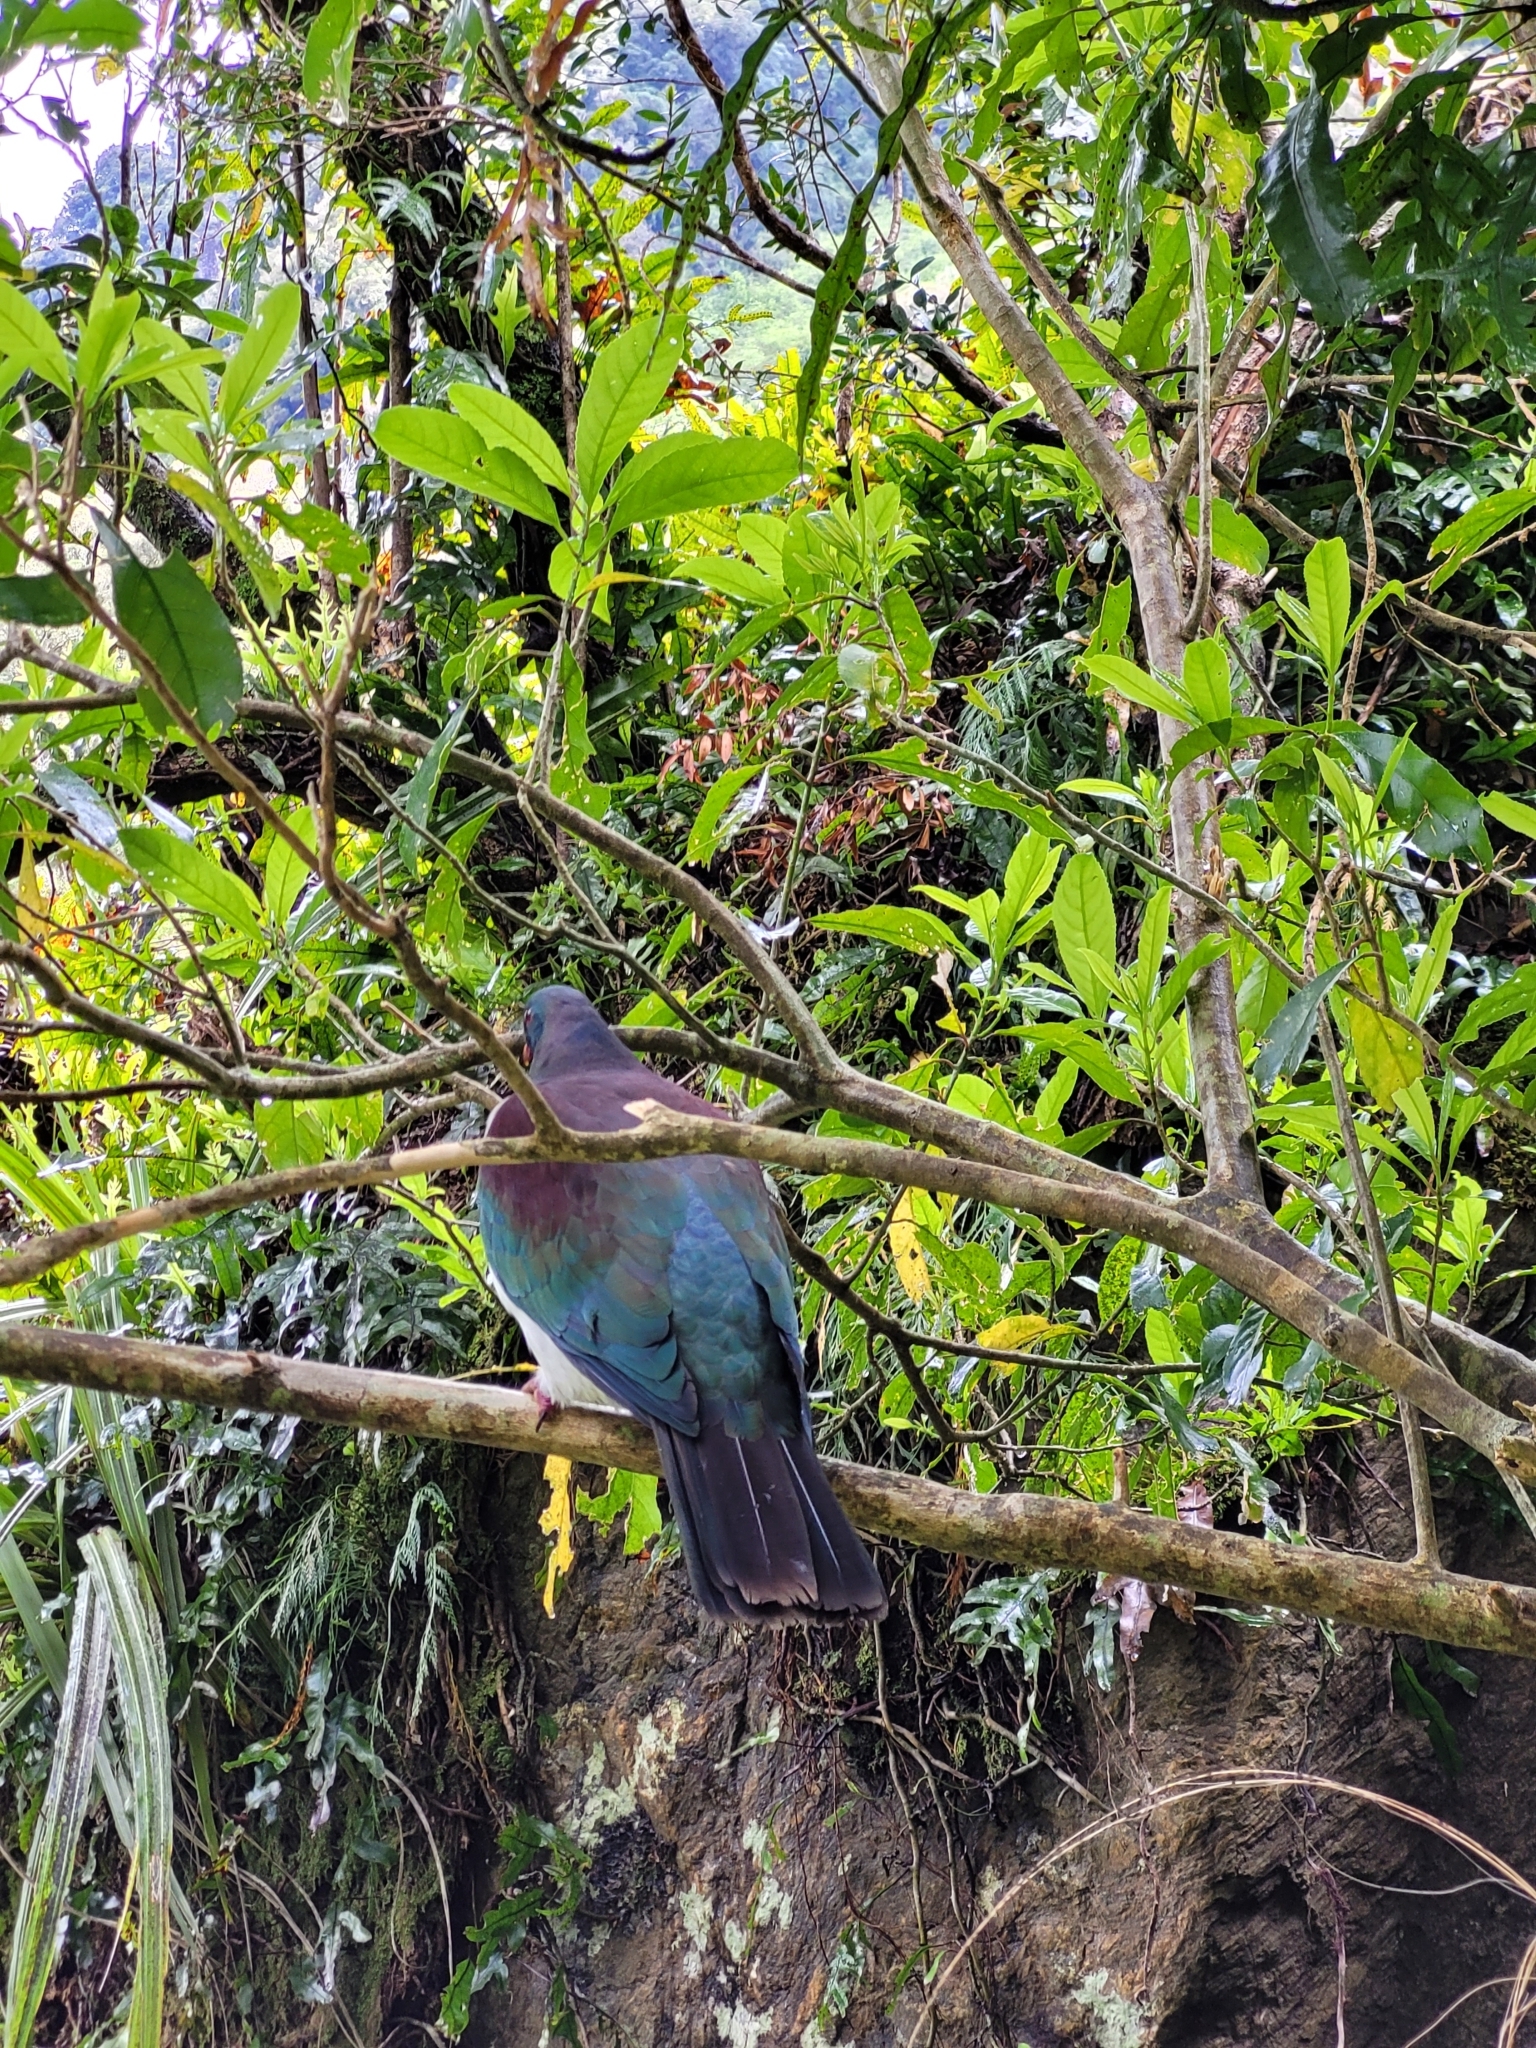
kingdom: Animalia
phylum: Chordata
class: Aves
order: Columbiformes
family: Columbidae
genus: Hemiphaga
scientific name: Hemiphaga novaeseelandiae
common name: New zealand pigeon
